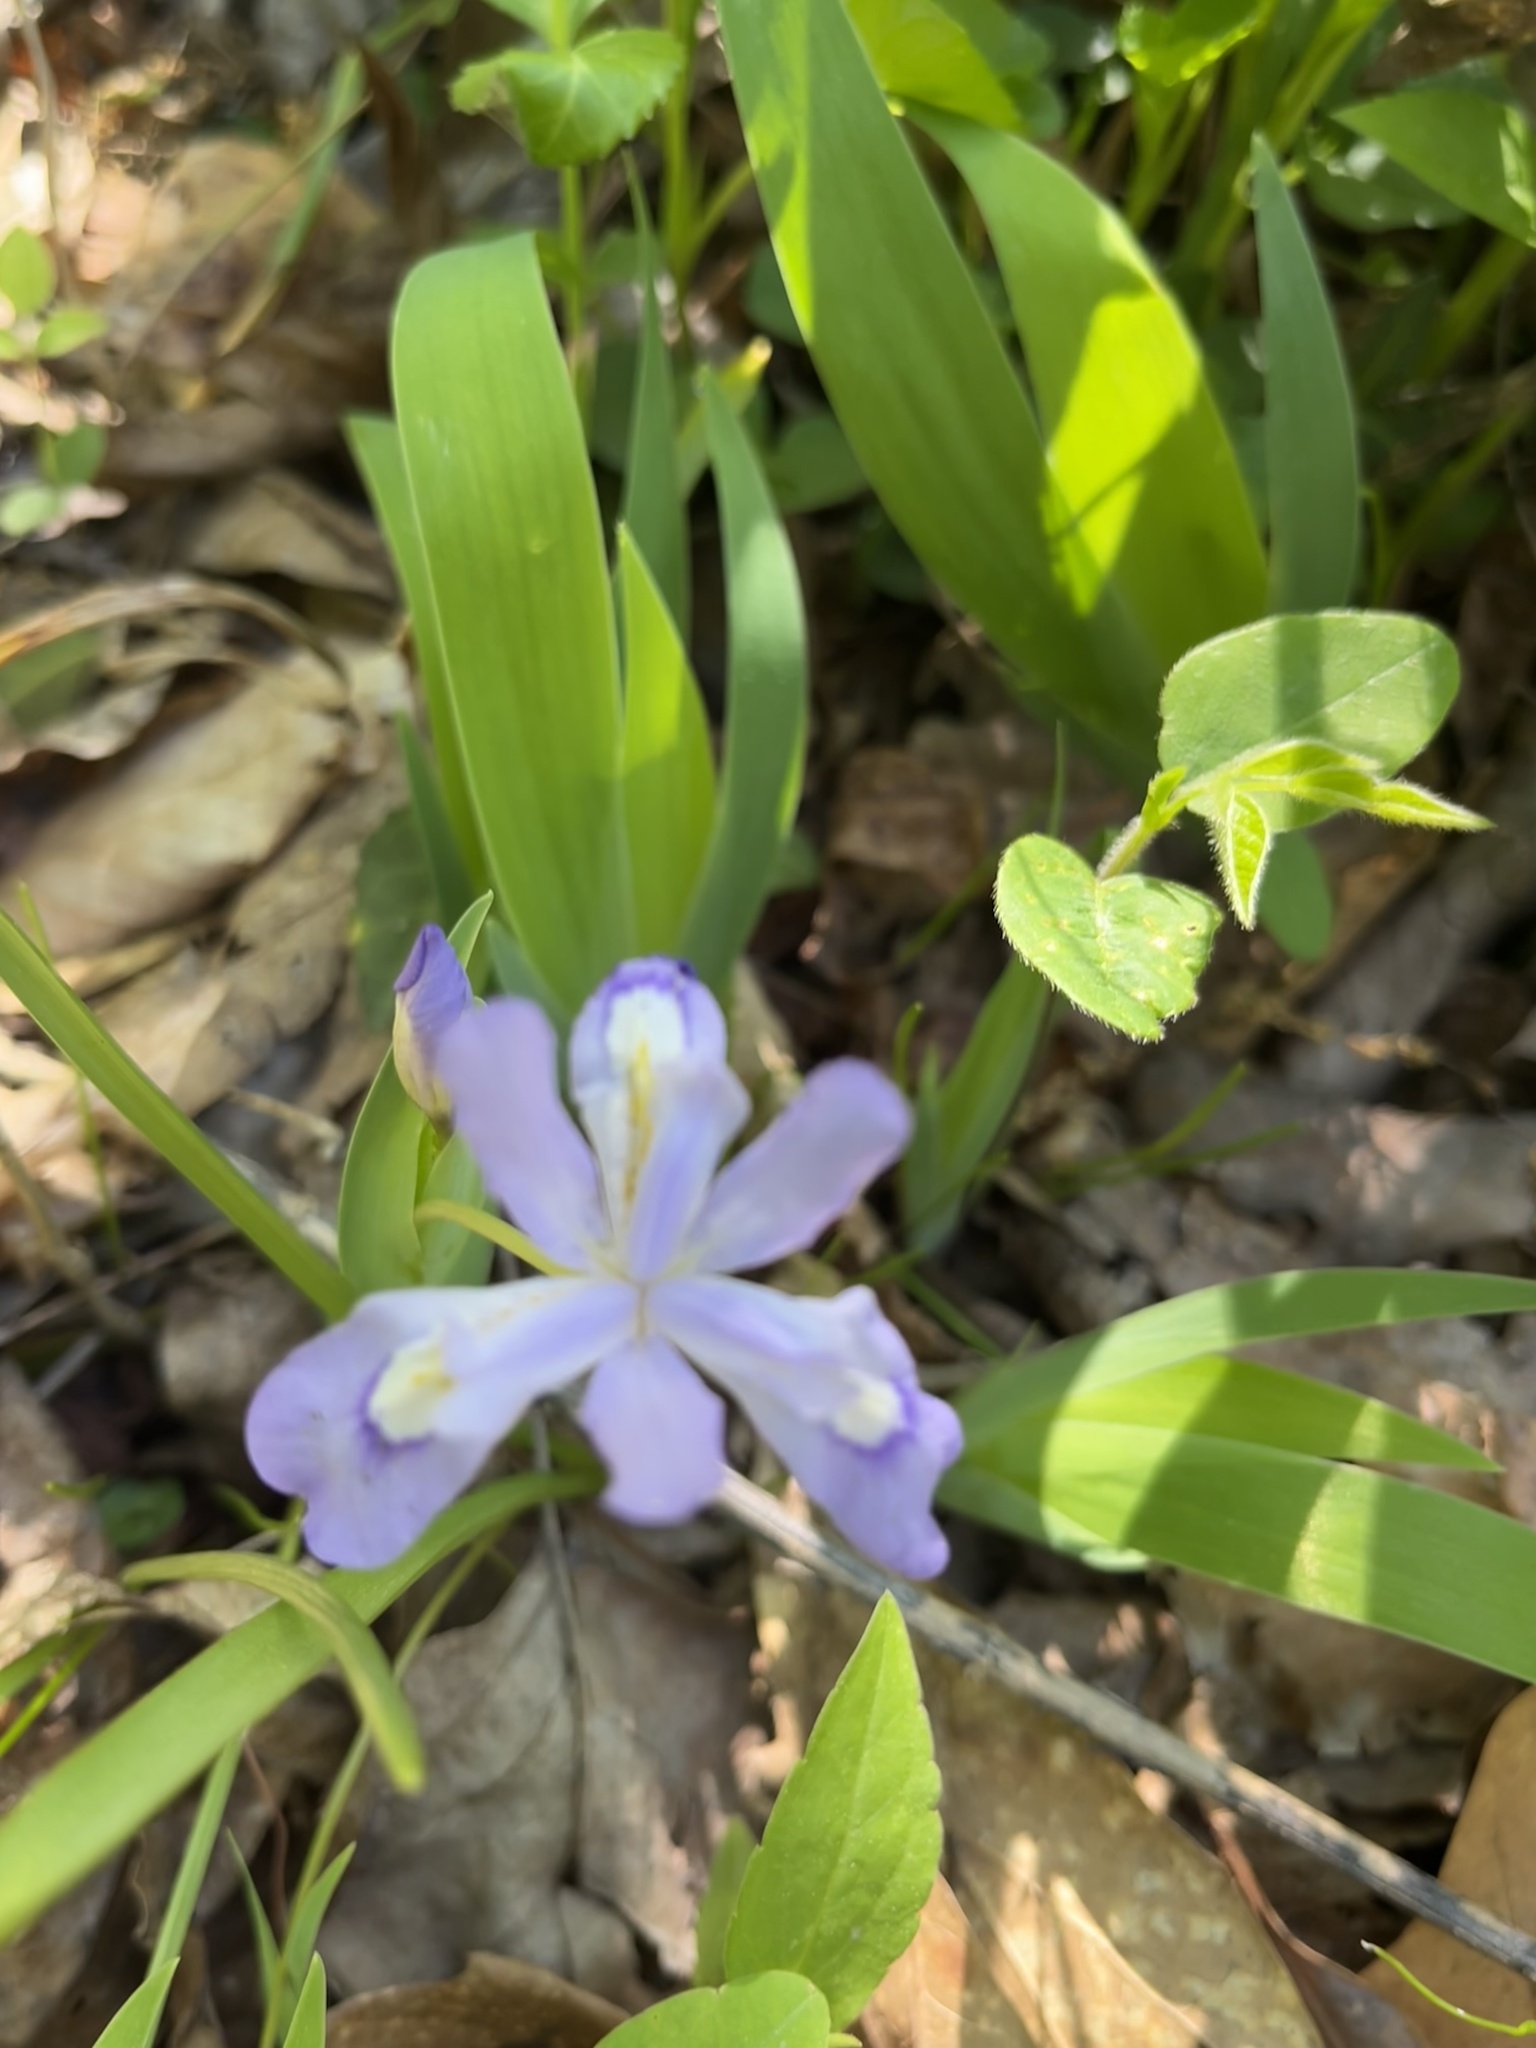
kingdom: Plantae
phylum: Tracheophyta
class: Liliopsida
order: Asparagales
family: Iridaceae
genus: Iris
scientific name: Iris cristata
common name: Crested iris
